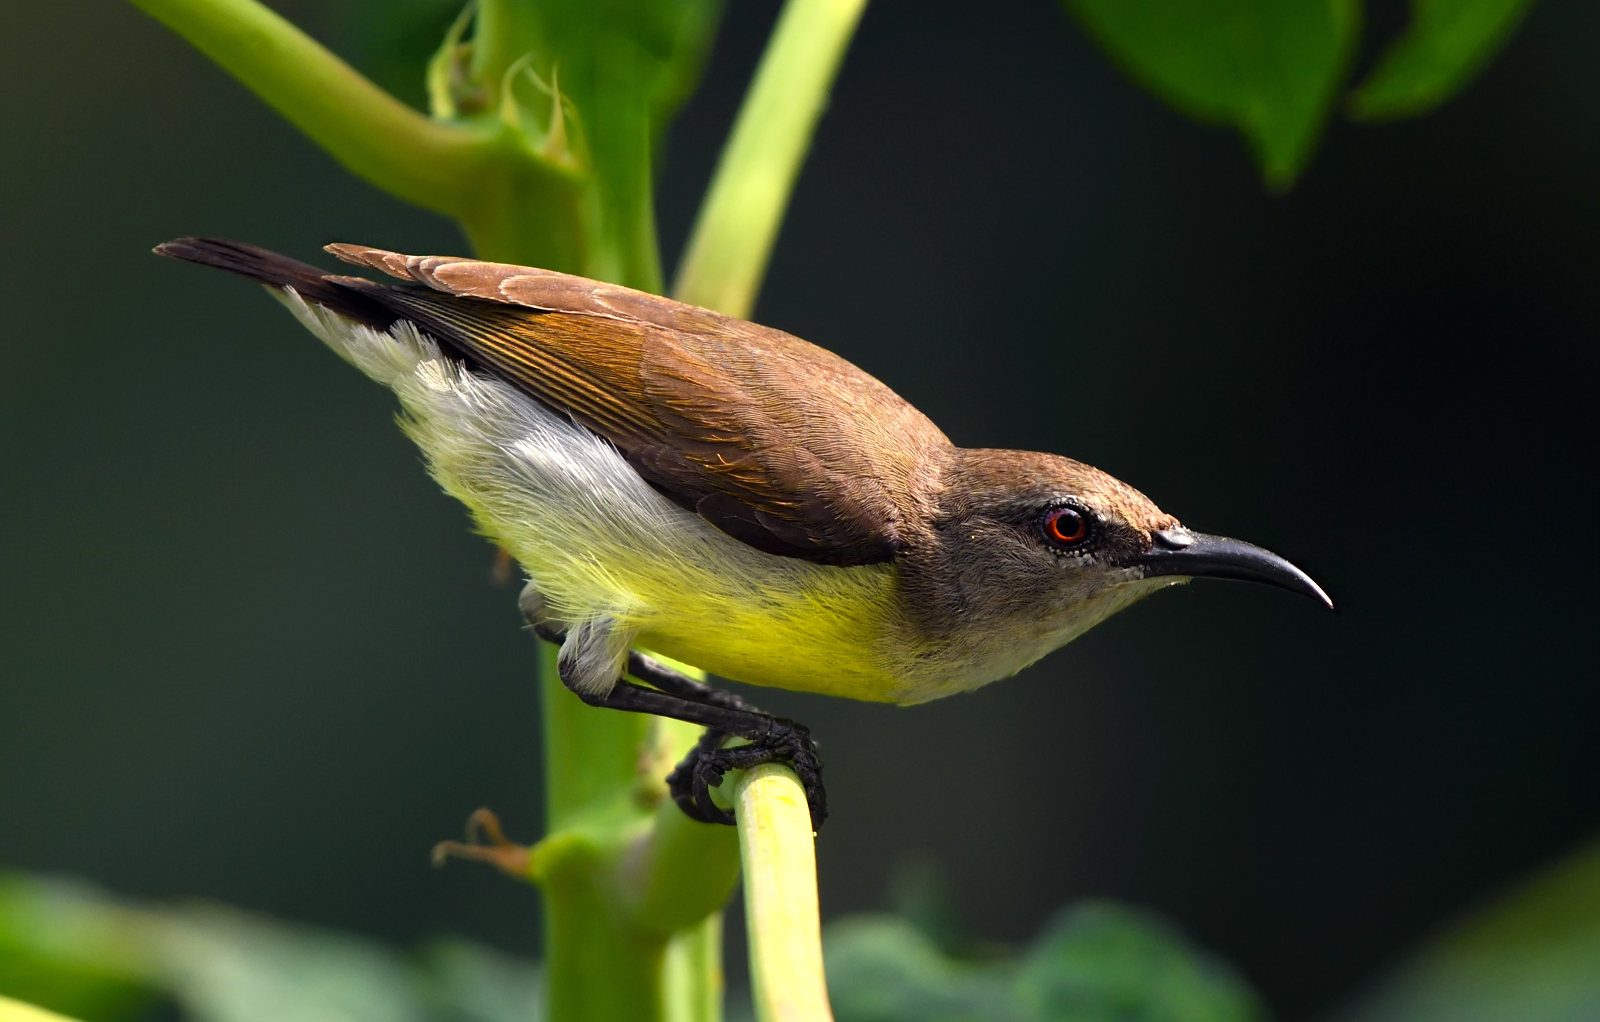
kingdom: Animalia
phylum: Chordata
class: Aves
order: Passeriformes
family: Nectariniidae
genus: Leptocoma
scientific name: Leptocoma zeylonica
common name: Purple-rumped sunbird
